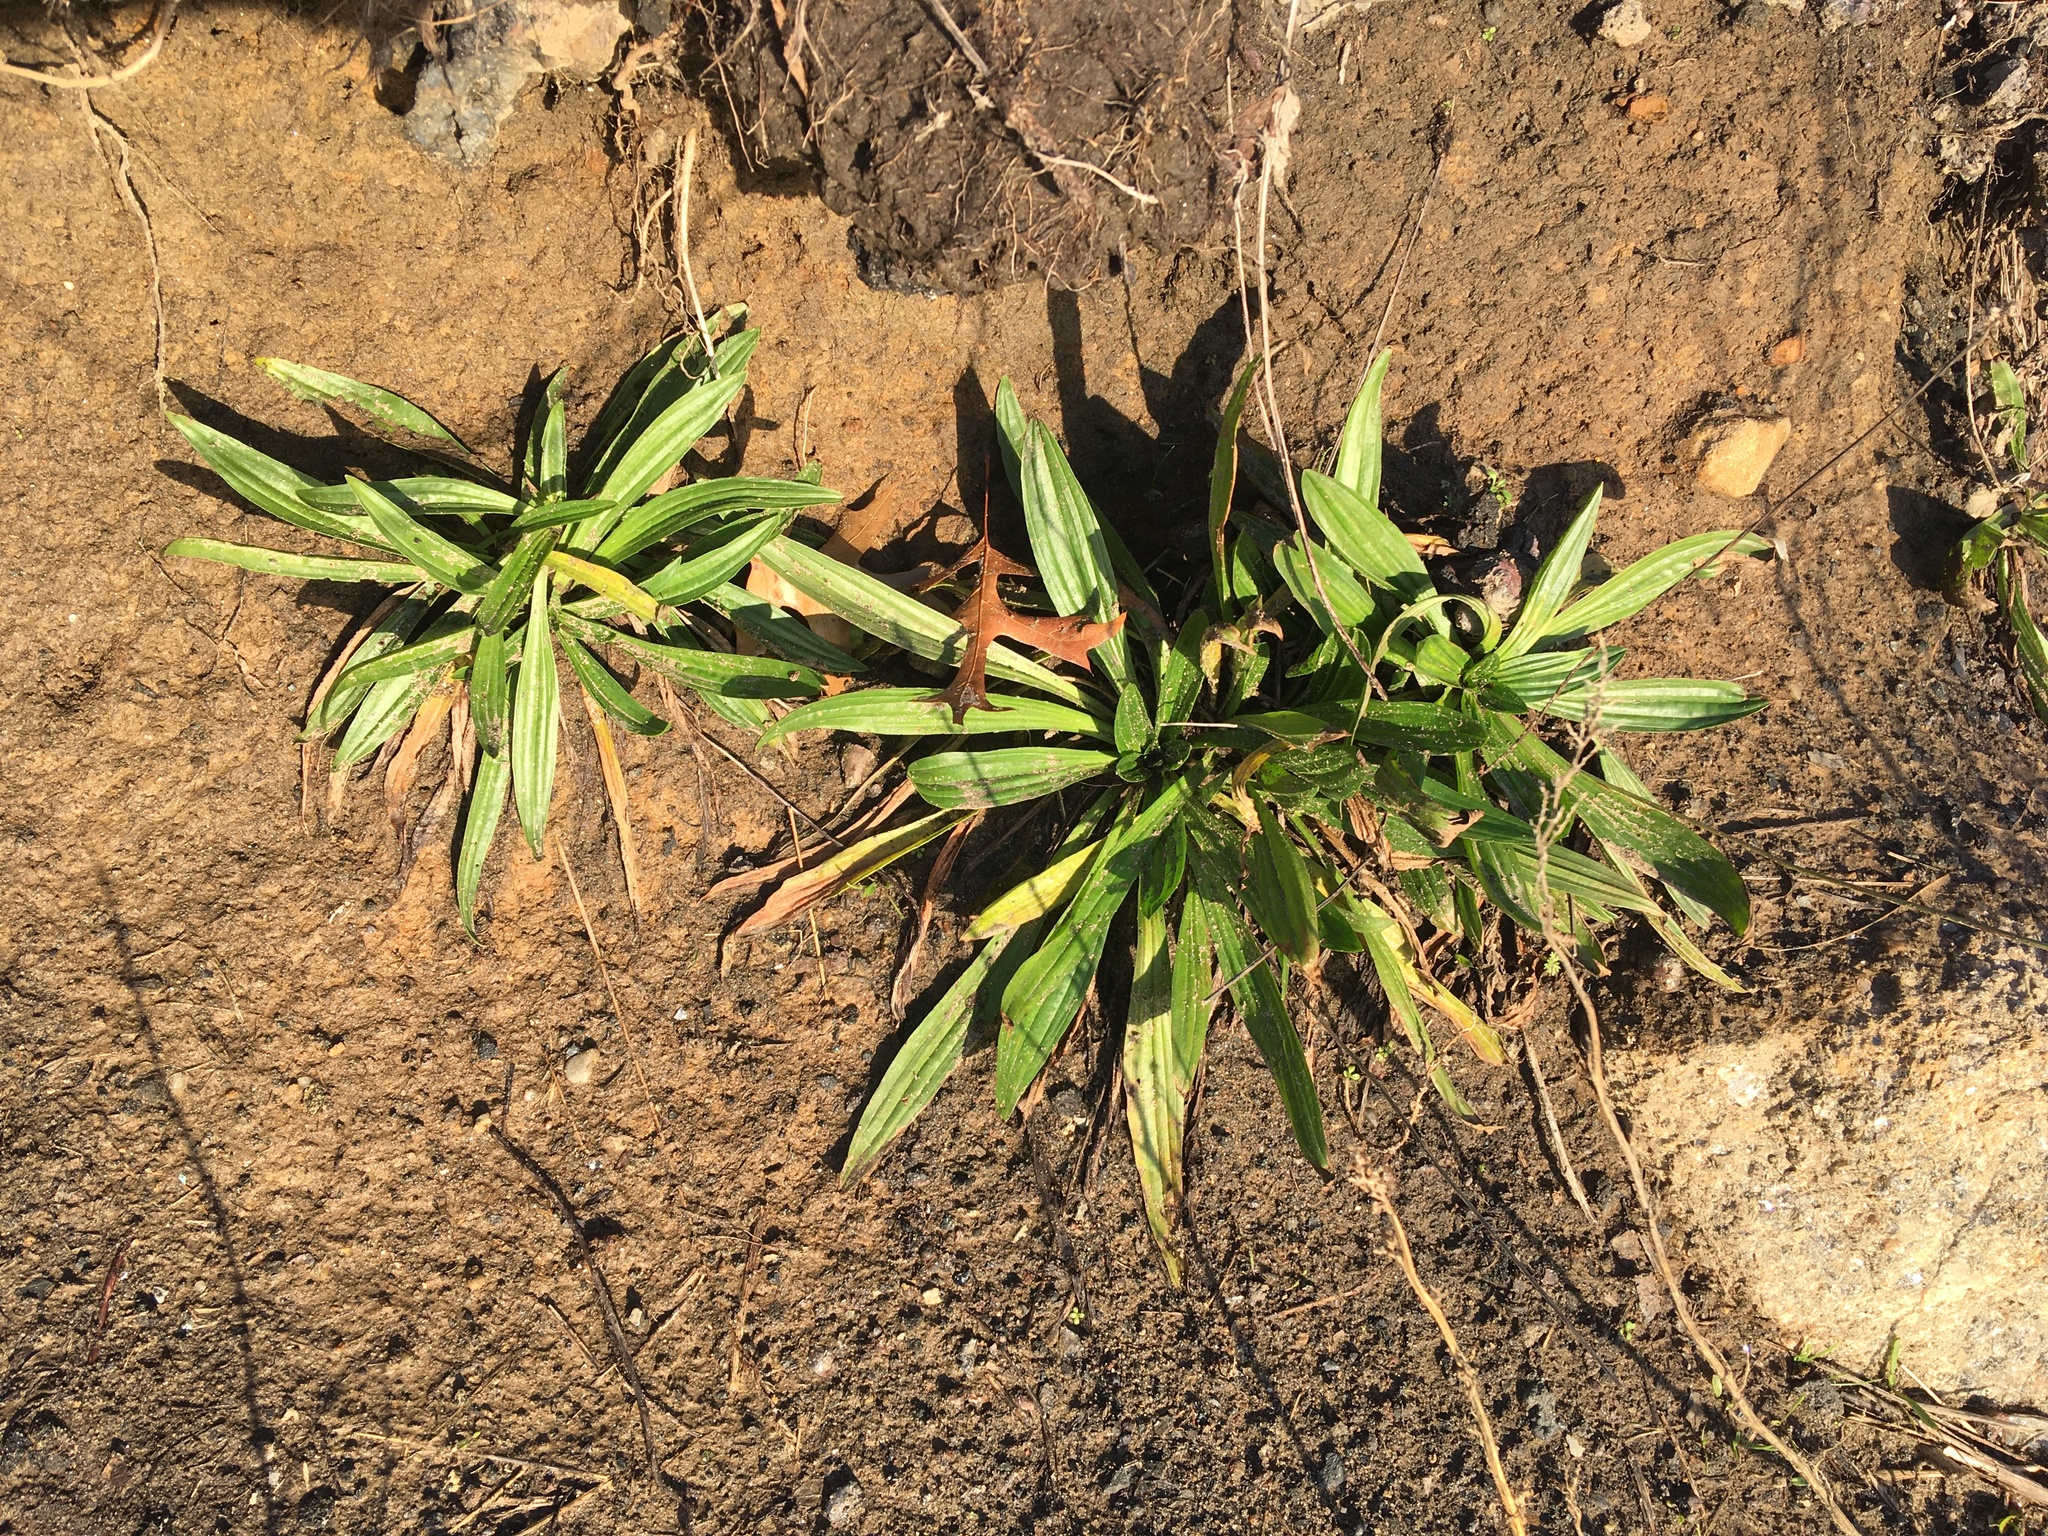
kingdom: Plantae
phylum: Tracheophyta
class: Magnoliopsida
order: Lamiales
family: Plantaginaceae
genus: Plantago
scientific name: Plantago lanceolata
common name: Ribwort plantain
